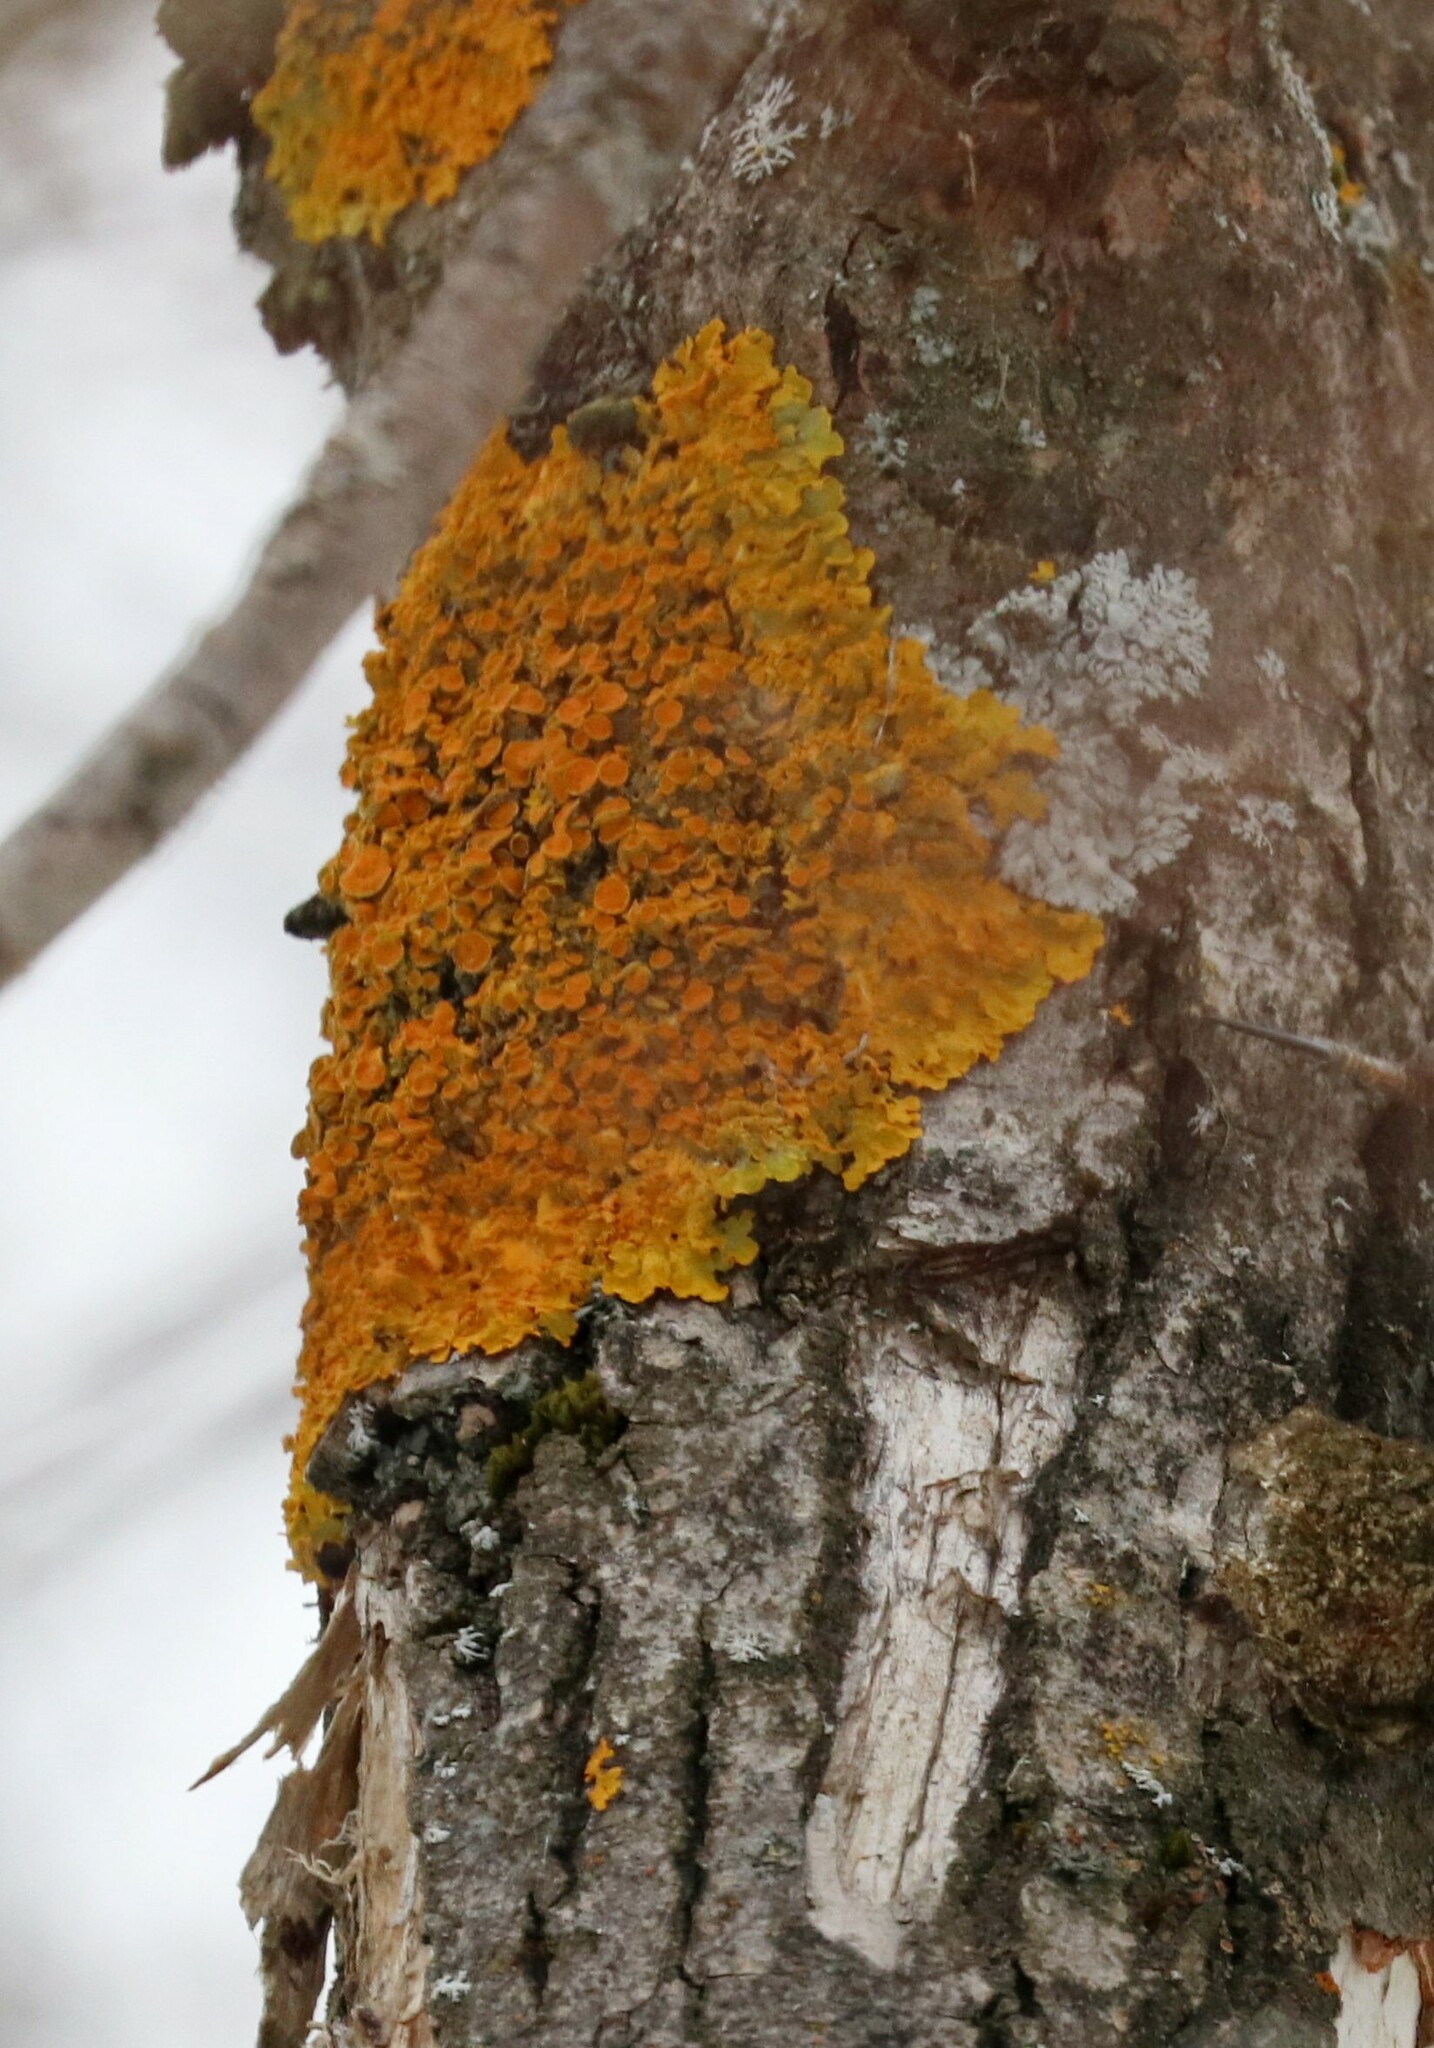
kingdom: Fungi
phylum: Ascomycota
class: Lecanoromycetes
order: Teloschistales
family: Teloschistaceae
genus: Xanthoria
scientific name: Xanthoria parietina
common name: Common orange lichen
